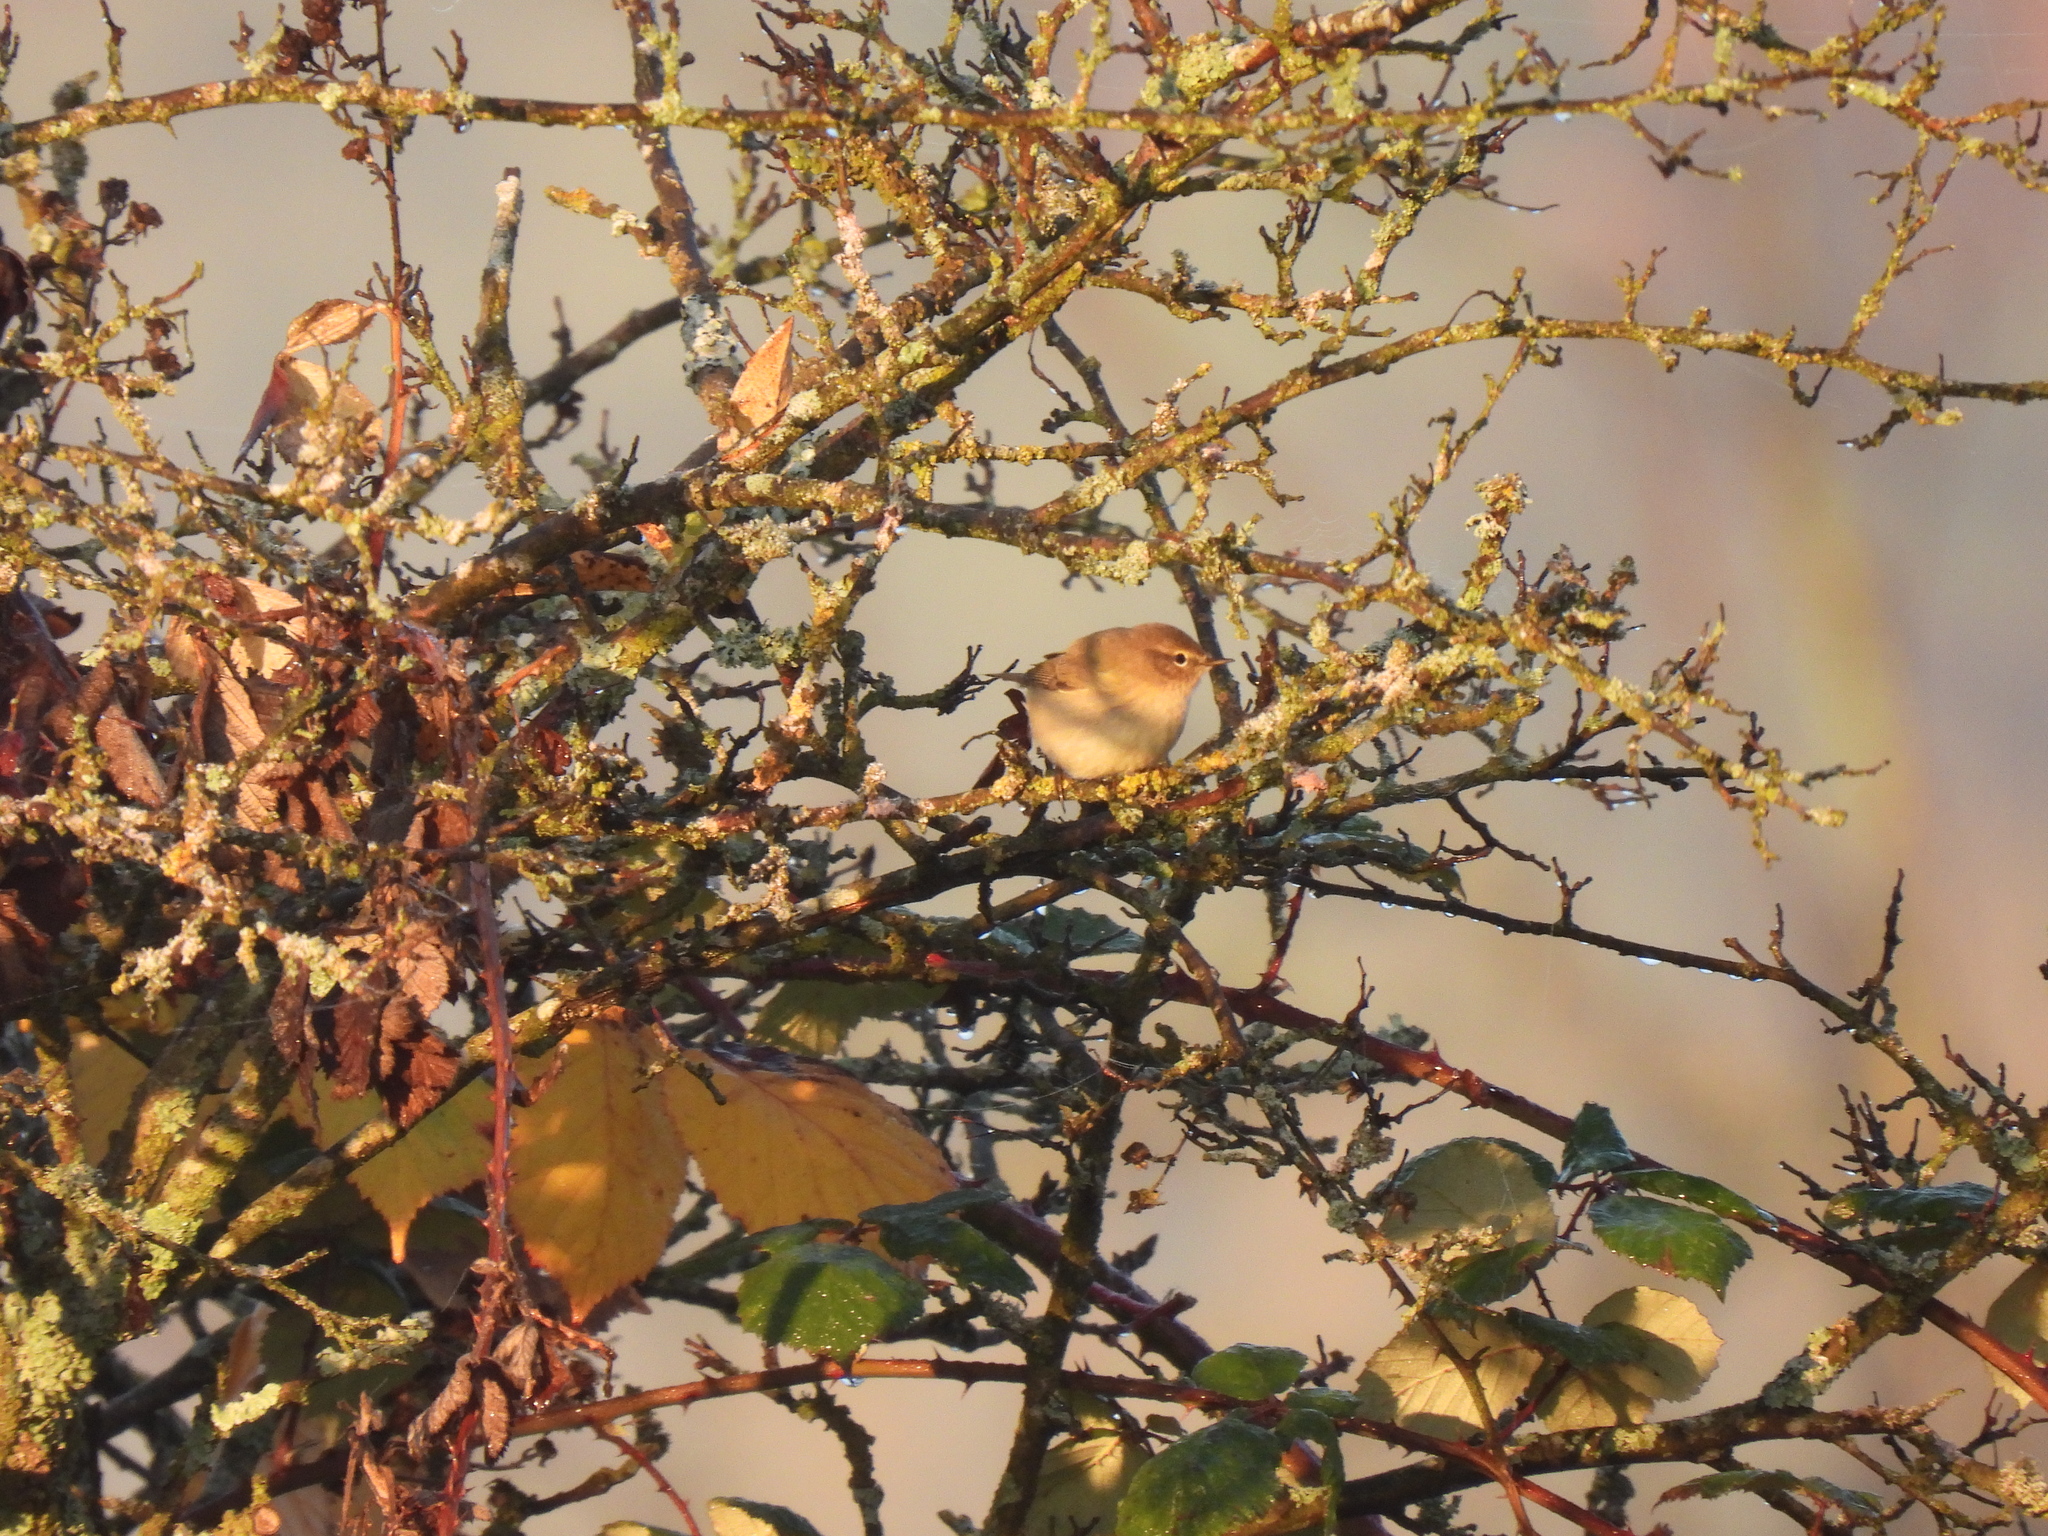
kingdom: Animalia
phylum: Chordata
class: Aves
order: Passeriformes
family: Phylloscopidae
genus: Phylloscopus
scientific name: Phylloscopus collybita
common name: Common chiffchaff
